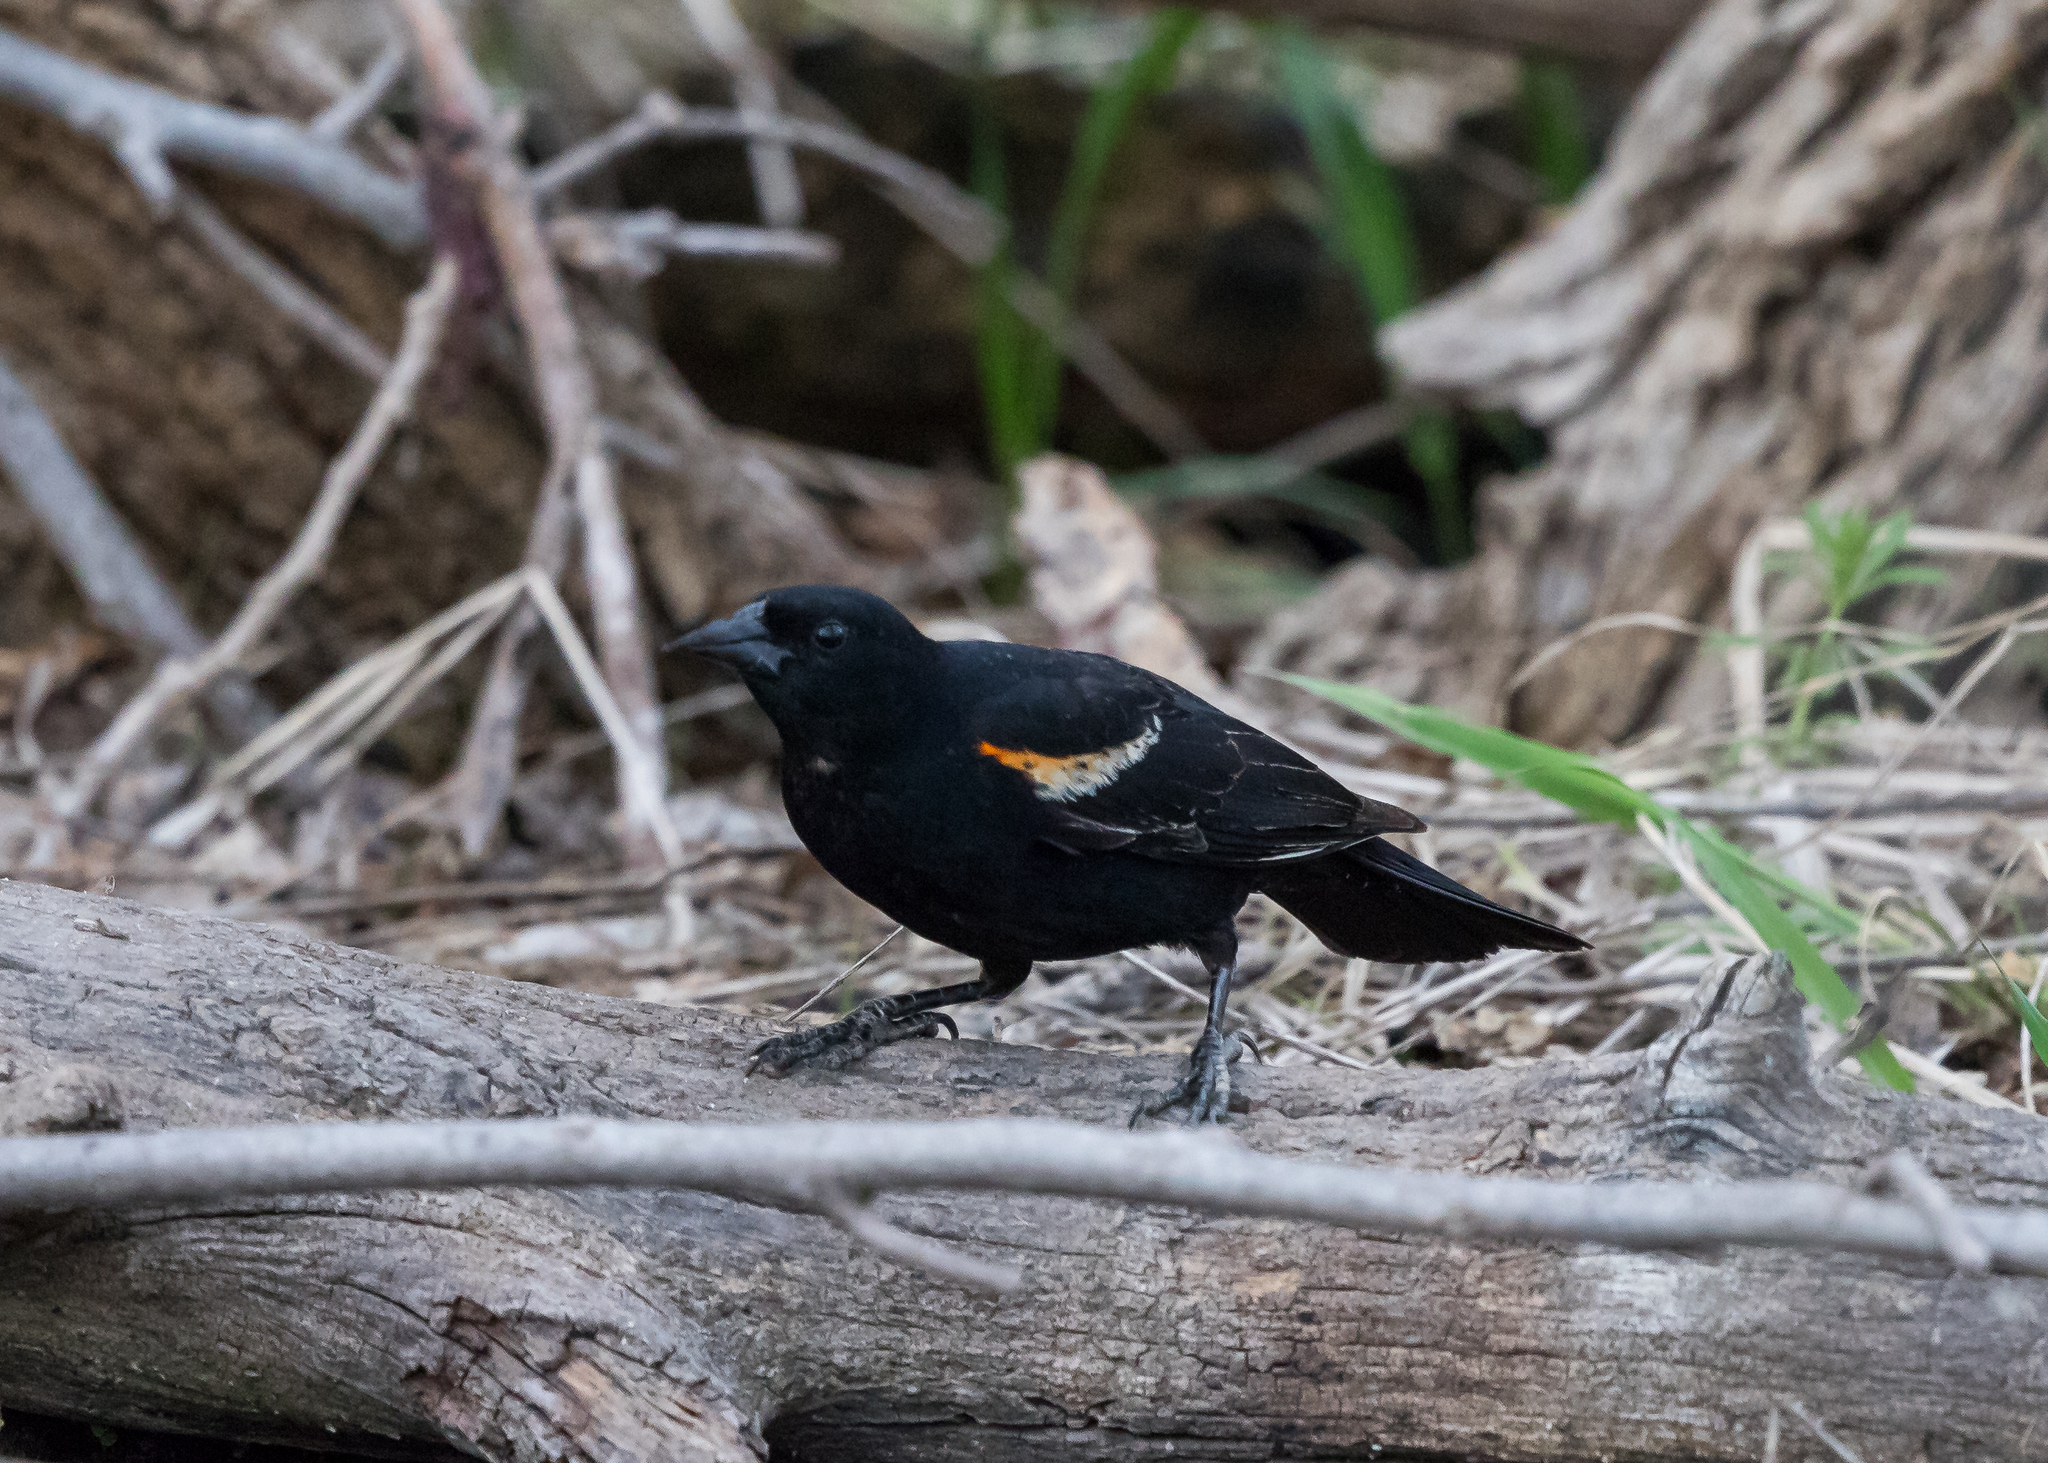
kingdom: Animalia
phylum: Chordata
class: Aves
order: Passeriformes
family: Icteridae
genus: Agelaius
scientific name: Agelaius phoeniceus
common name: Red-winged blackbird
